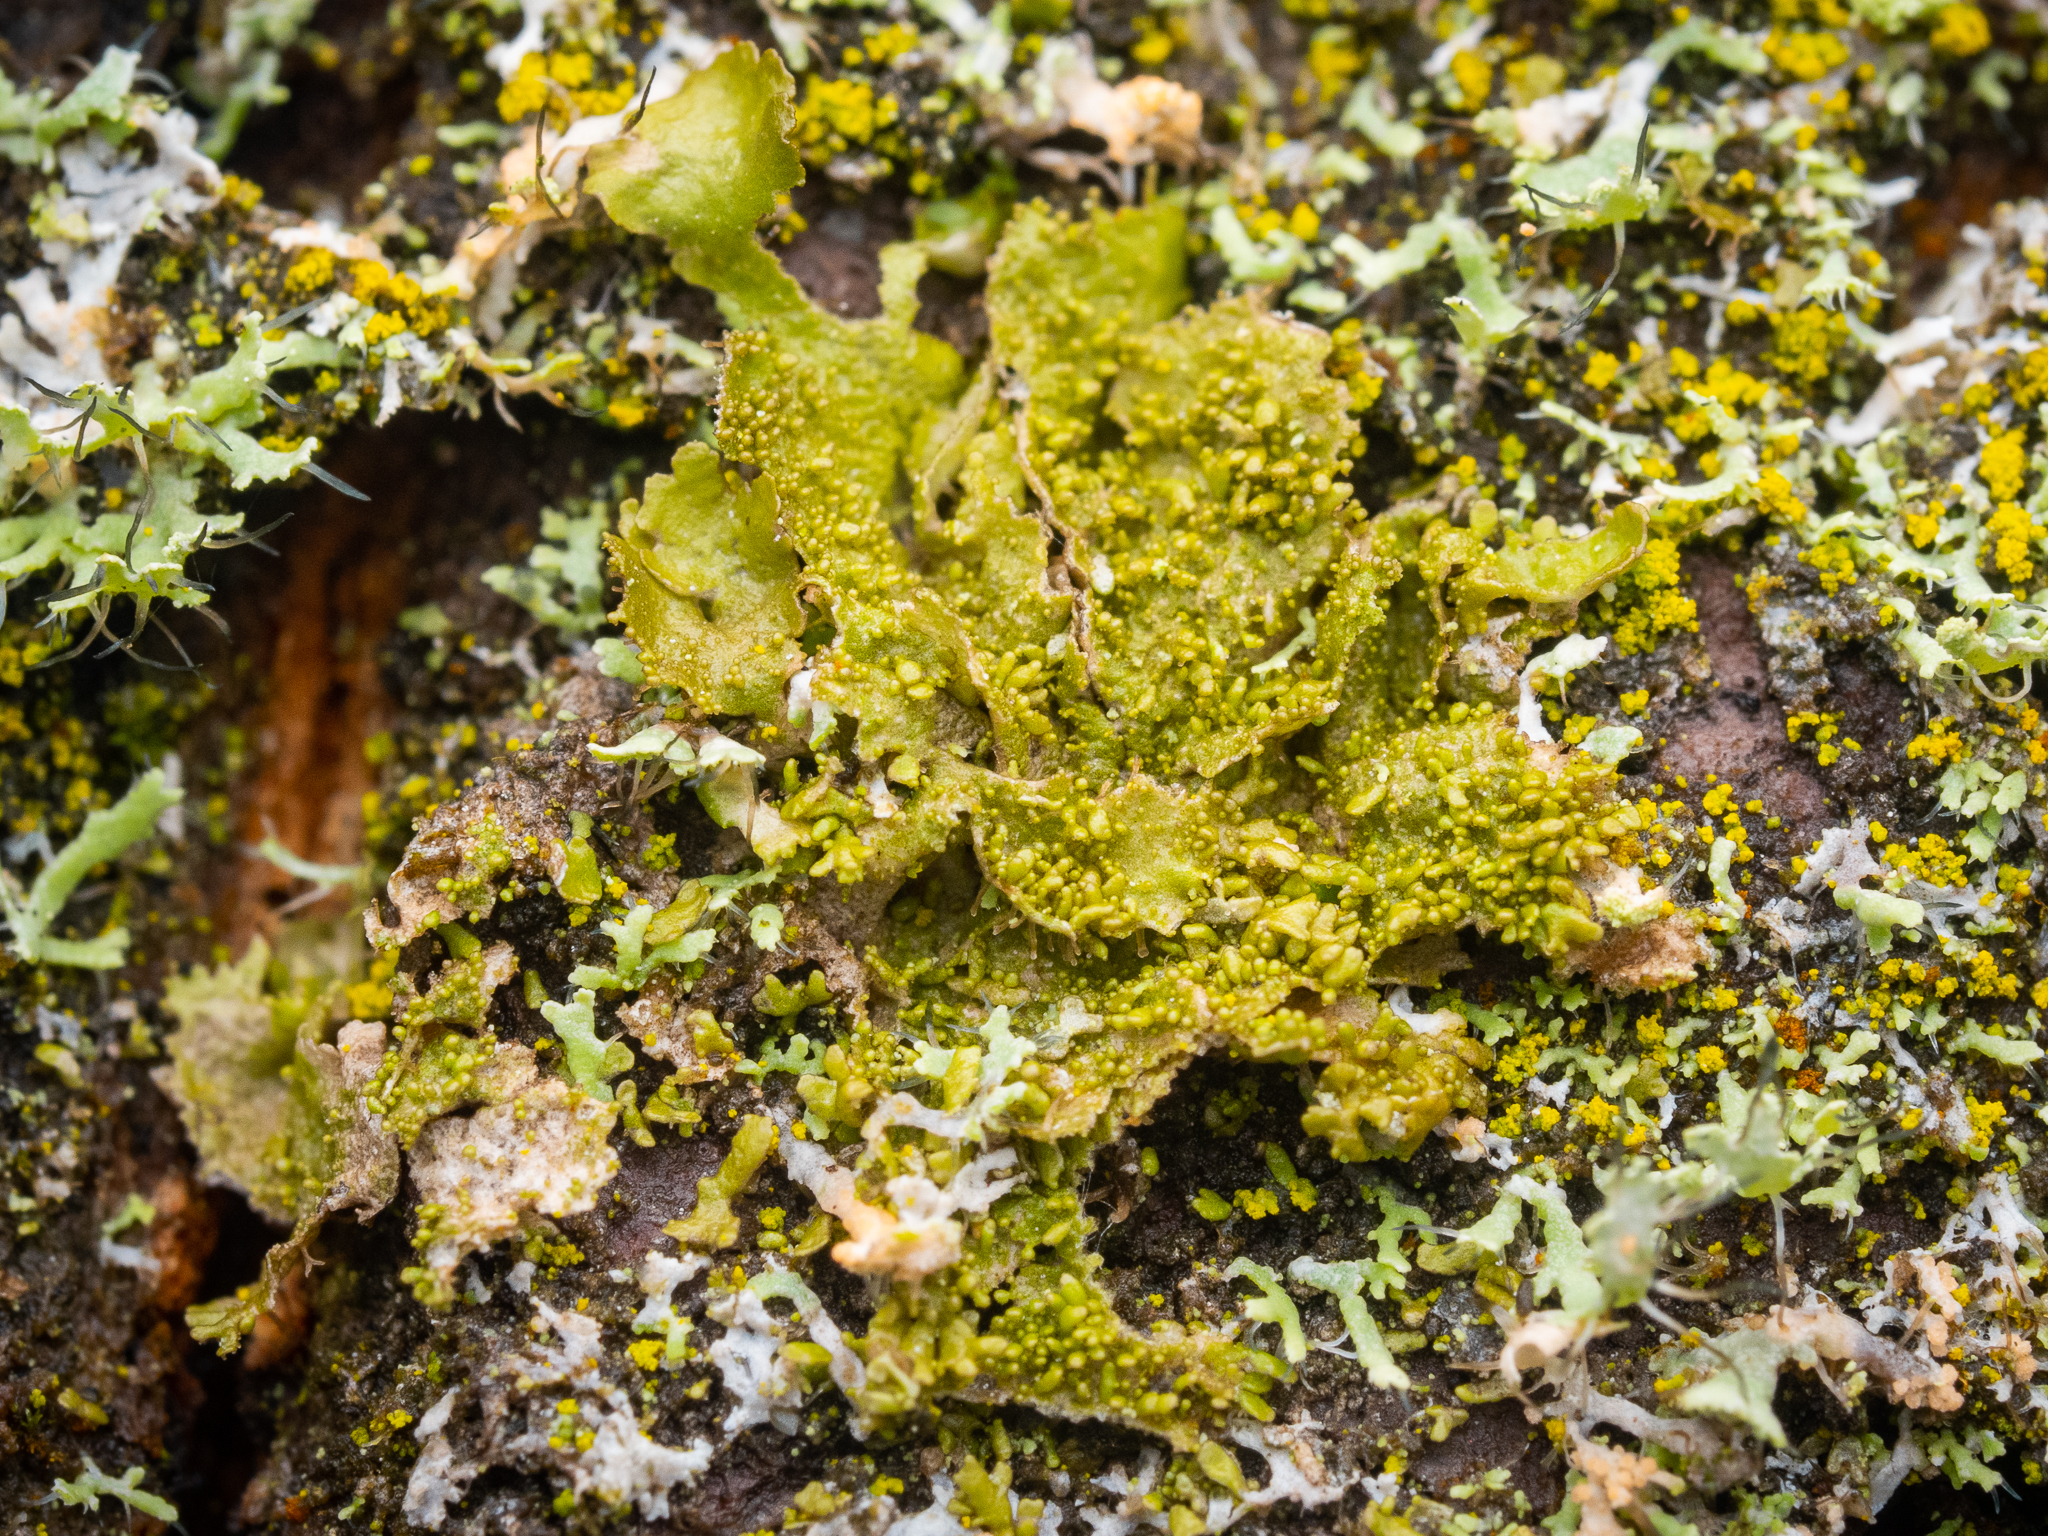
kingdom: Fungi
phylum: Ascomycota
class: Lecanoromycetes
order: Lecanorales
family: Parmeliaceae
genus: Melanohalea
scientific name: Melanohalea exasperatula
